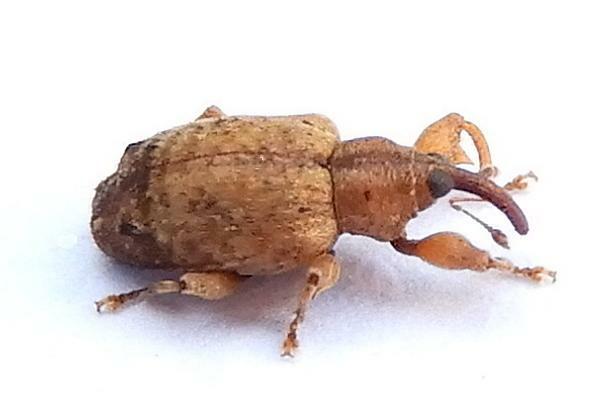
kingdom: Animalia
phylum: Arthropoda
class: Insecta
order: Coleoptera
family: Curculionidae
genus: Ochyromera
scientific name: Ochyromera ligustri
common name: Weevil
